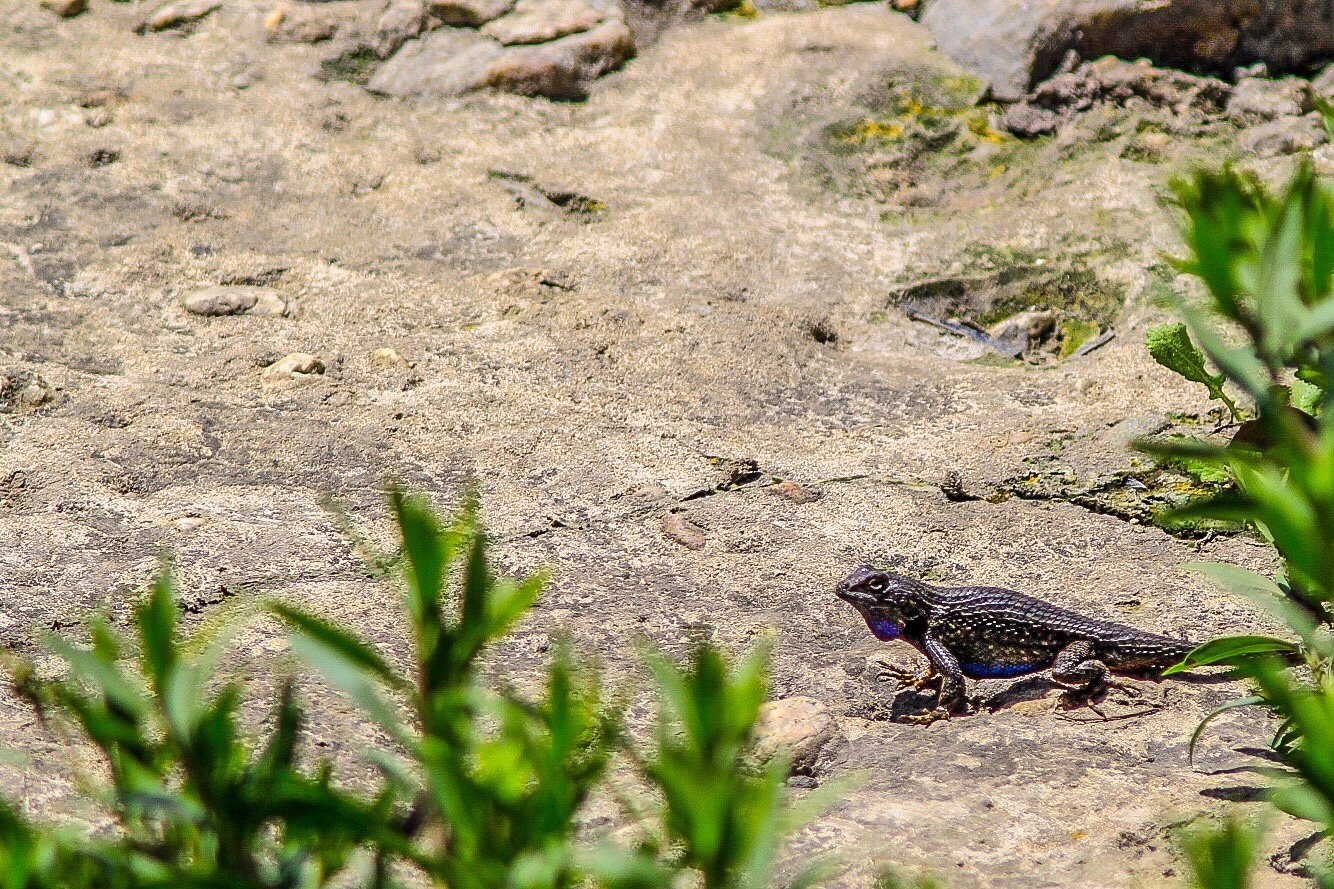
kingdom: Animalia
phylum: Chordata
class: Squamata
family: Phrynosomatidae
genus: Sceloporus
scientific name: Sceloporus occidentalis
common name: Western fence lizard
